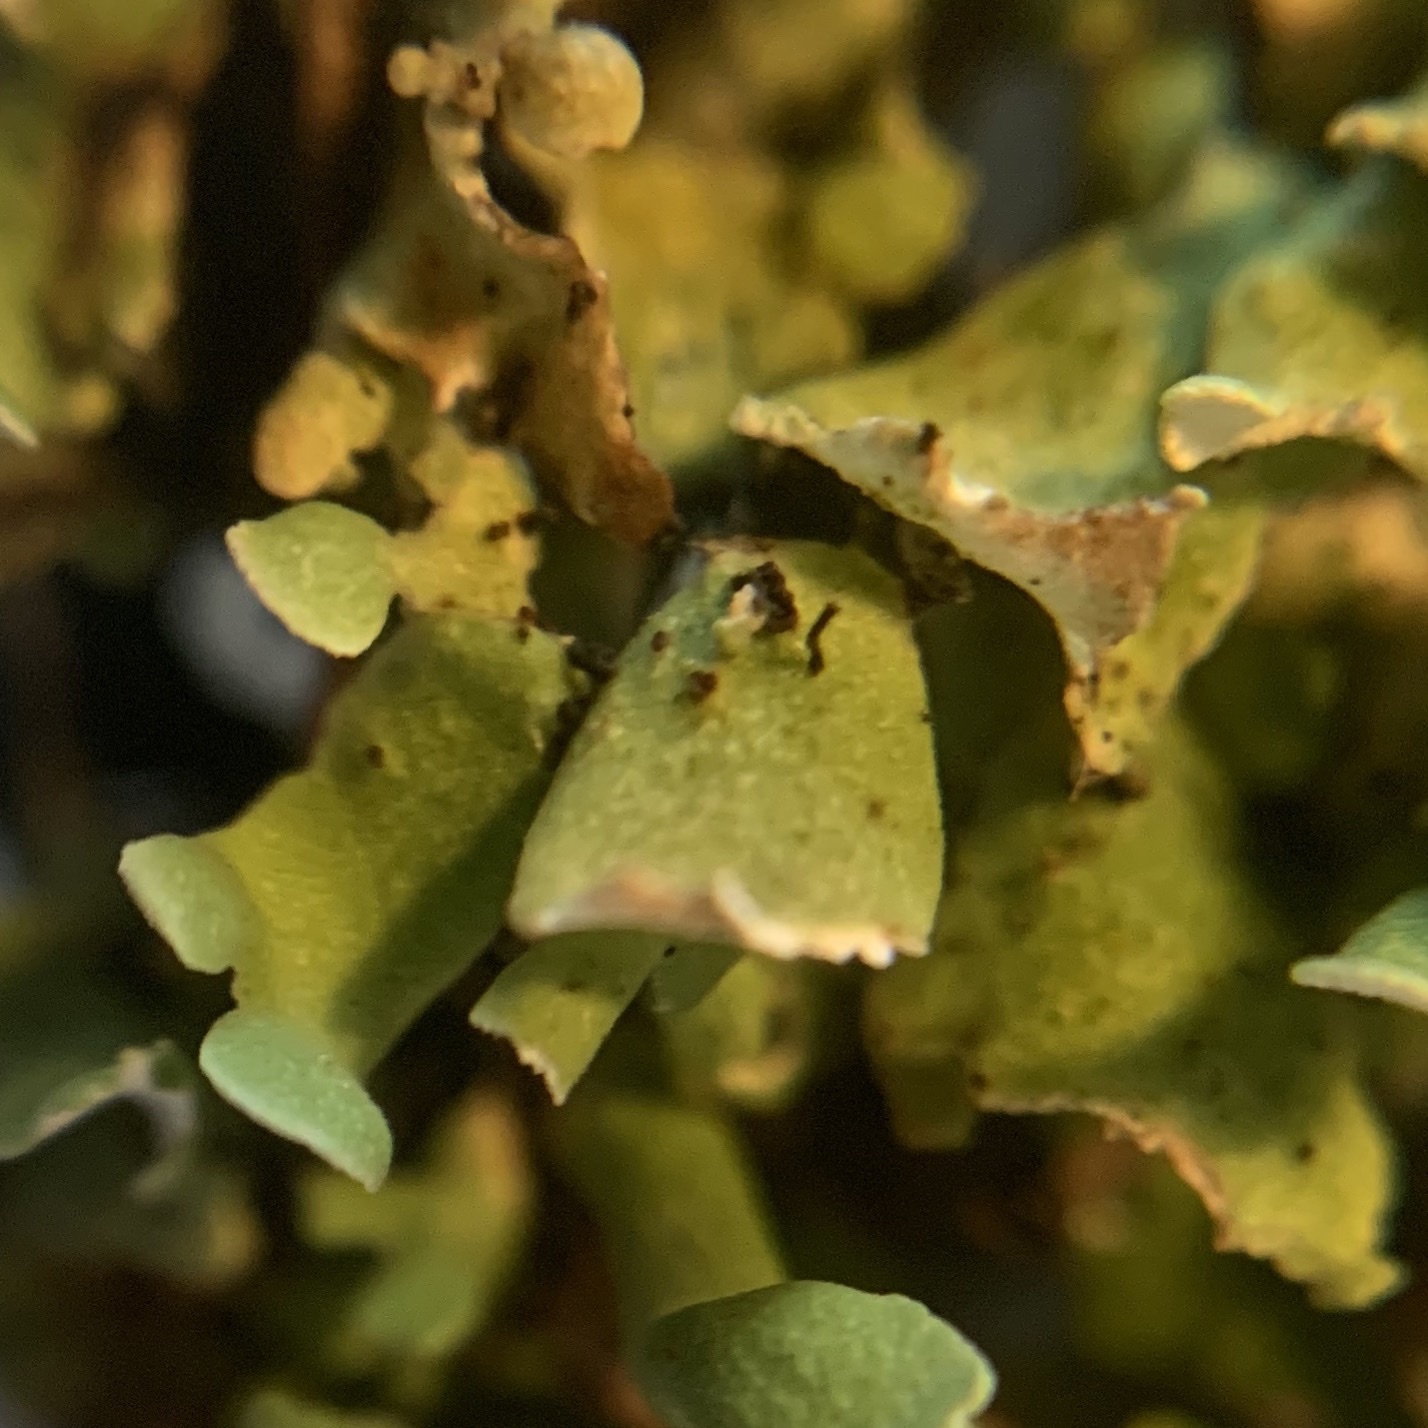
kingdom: Fungi
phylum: Ascomycota
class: Lecanoromycetes
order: Lecanorales
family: Cladoniaceae
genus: Cladonia
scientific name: Cladonia subcariosa
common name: Peg lichen
